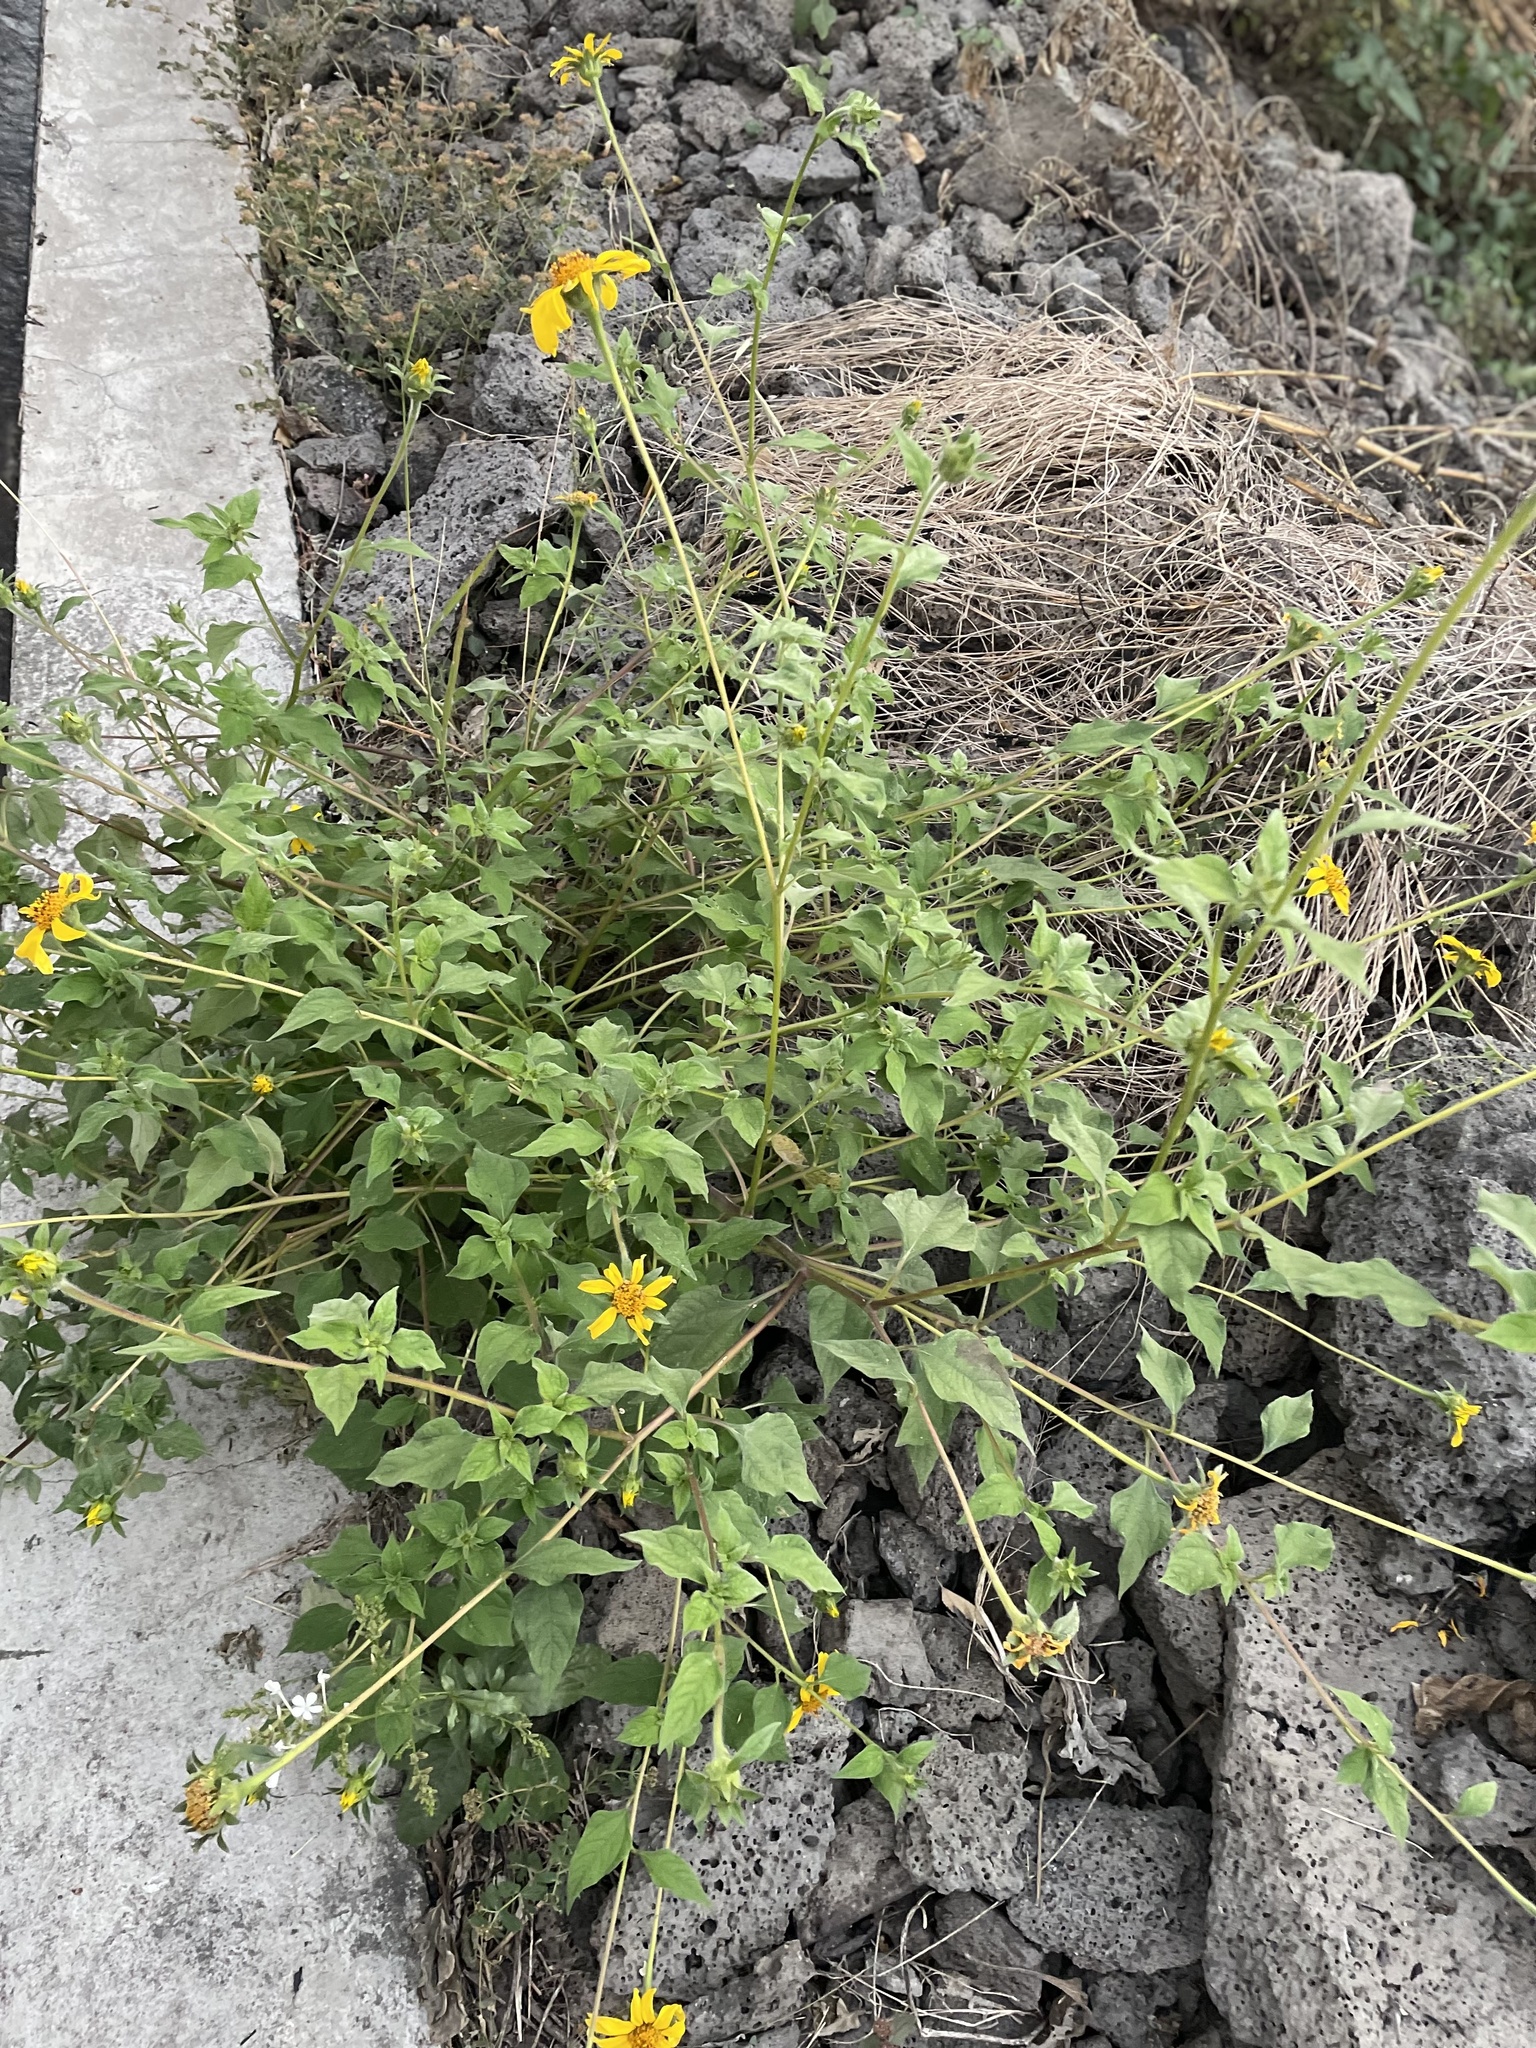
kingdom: Plantae
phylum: Tracheophyta
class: Magnoliopsida
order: Asterales
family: Asteraceae
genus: Tithonia
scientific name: Tithonia tubaeformis
